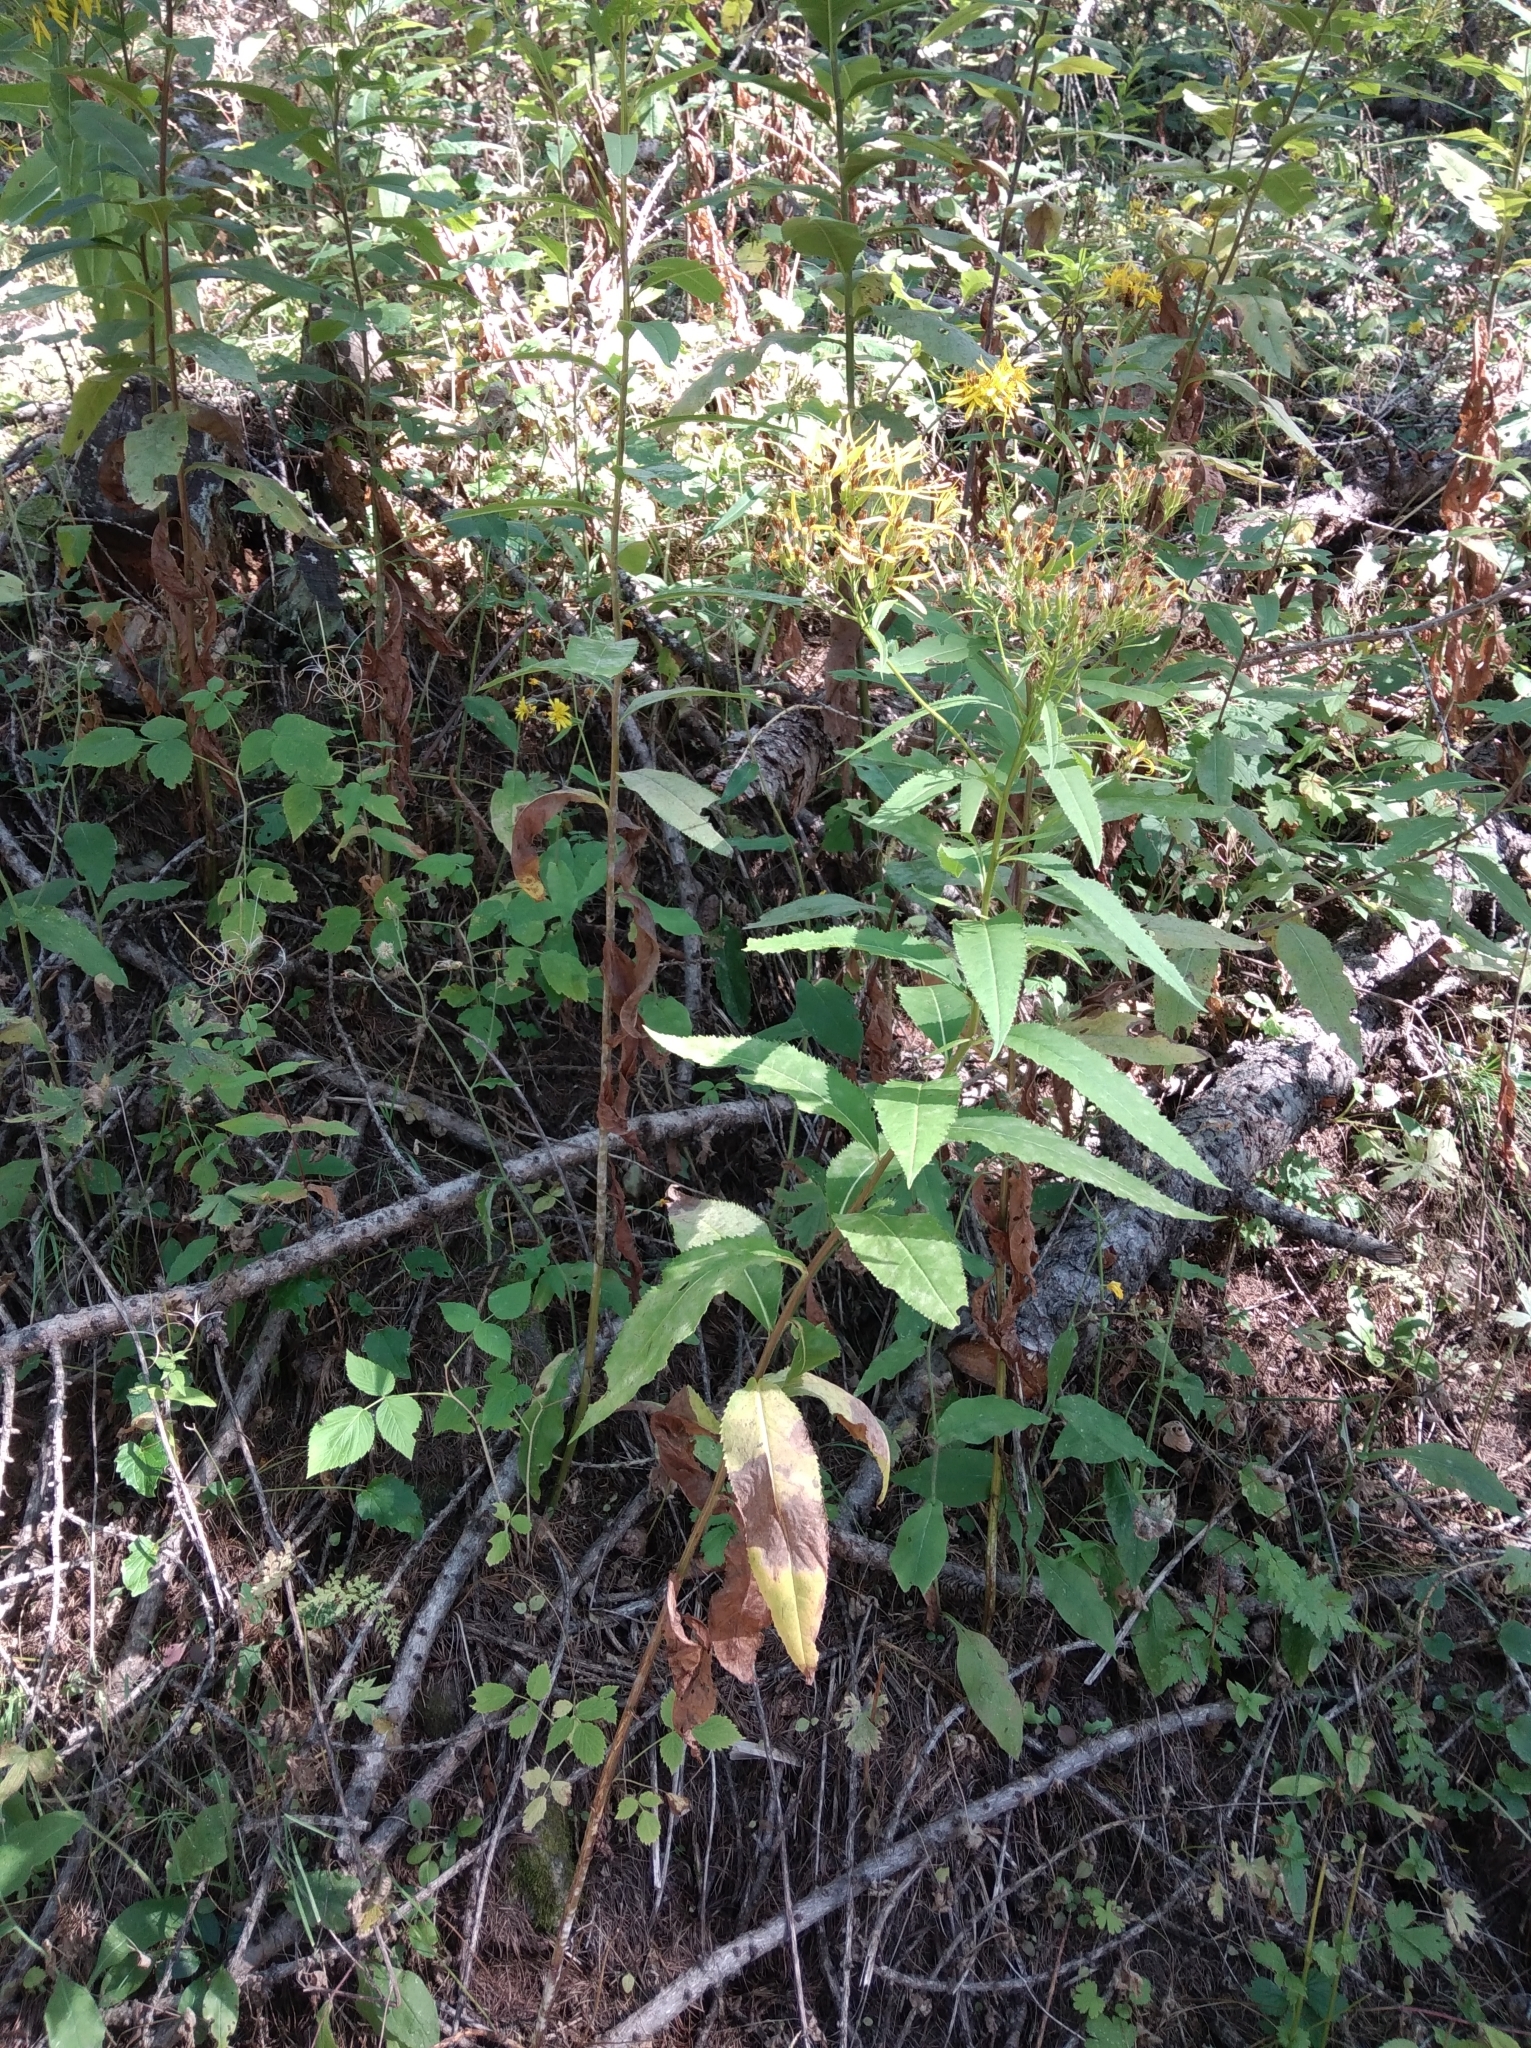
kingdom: Plantae
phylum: Tracheophyta
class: Magnoliopsida
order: Asterales
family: Asteraceae
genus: Senecio
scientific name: Senecio ovatus
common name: Wood ragwort
